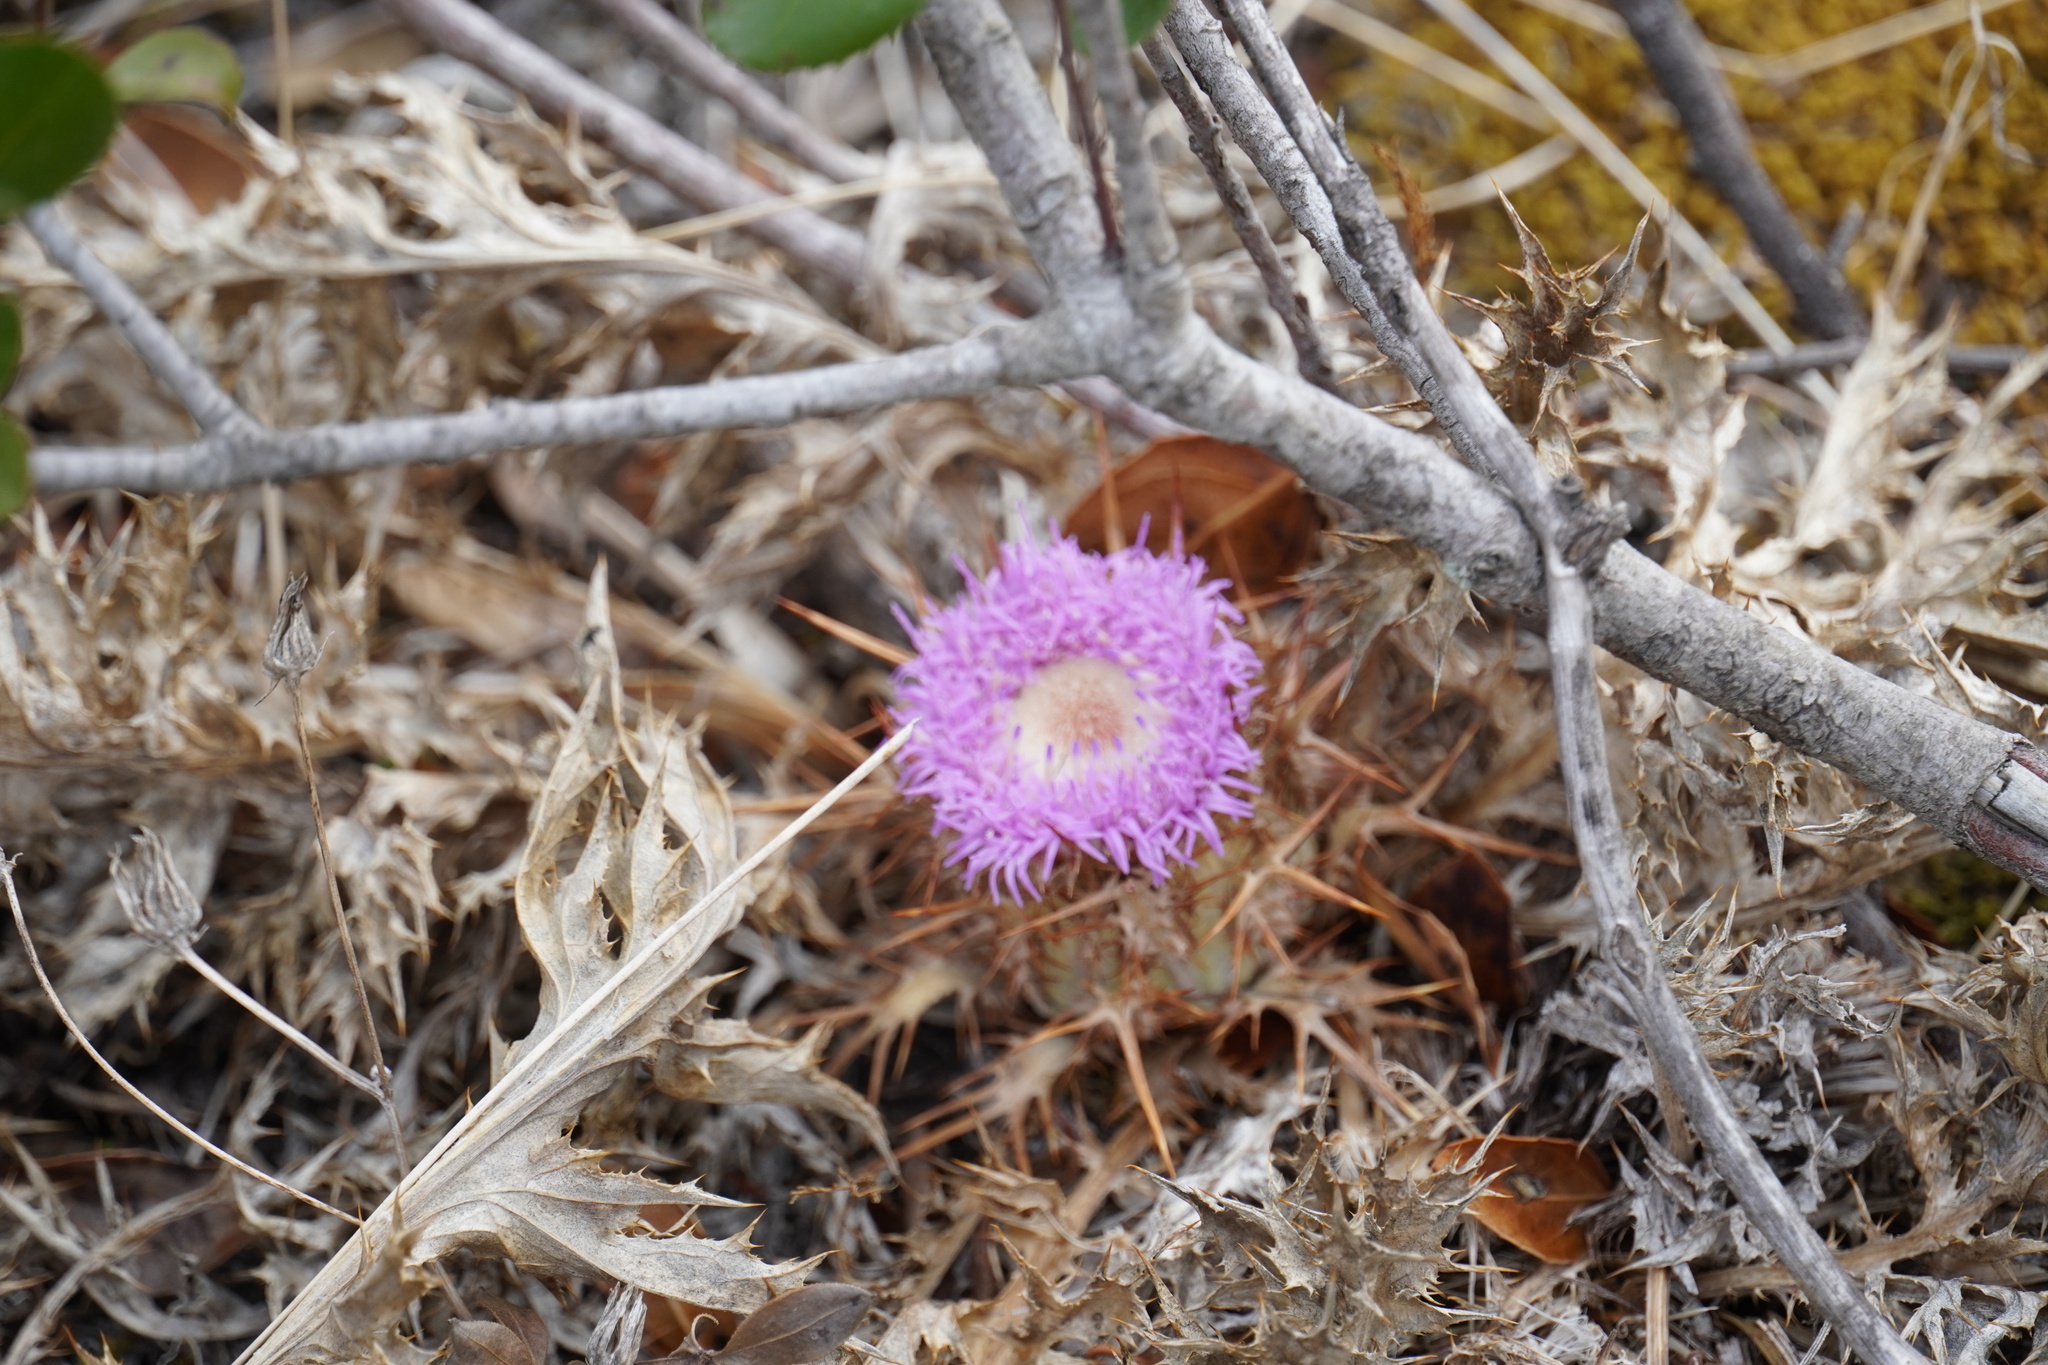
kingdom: Plantae
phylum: Tracheophyta
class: Magnoliopsida
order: Asterales
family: Asteraceae
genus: Chamaeleon
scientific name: Chamaeleon gummifer
